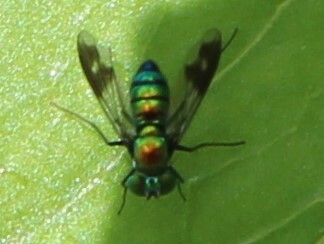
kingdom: Animalia
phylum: Arthropoda
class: Insecta
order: Diptera
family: Dolichopodidae
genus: Condylostylus
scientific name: Condylostylus patibulatus
